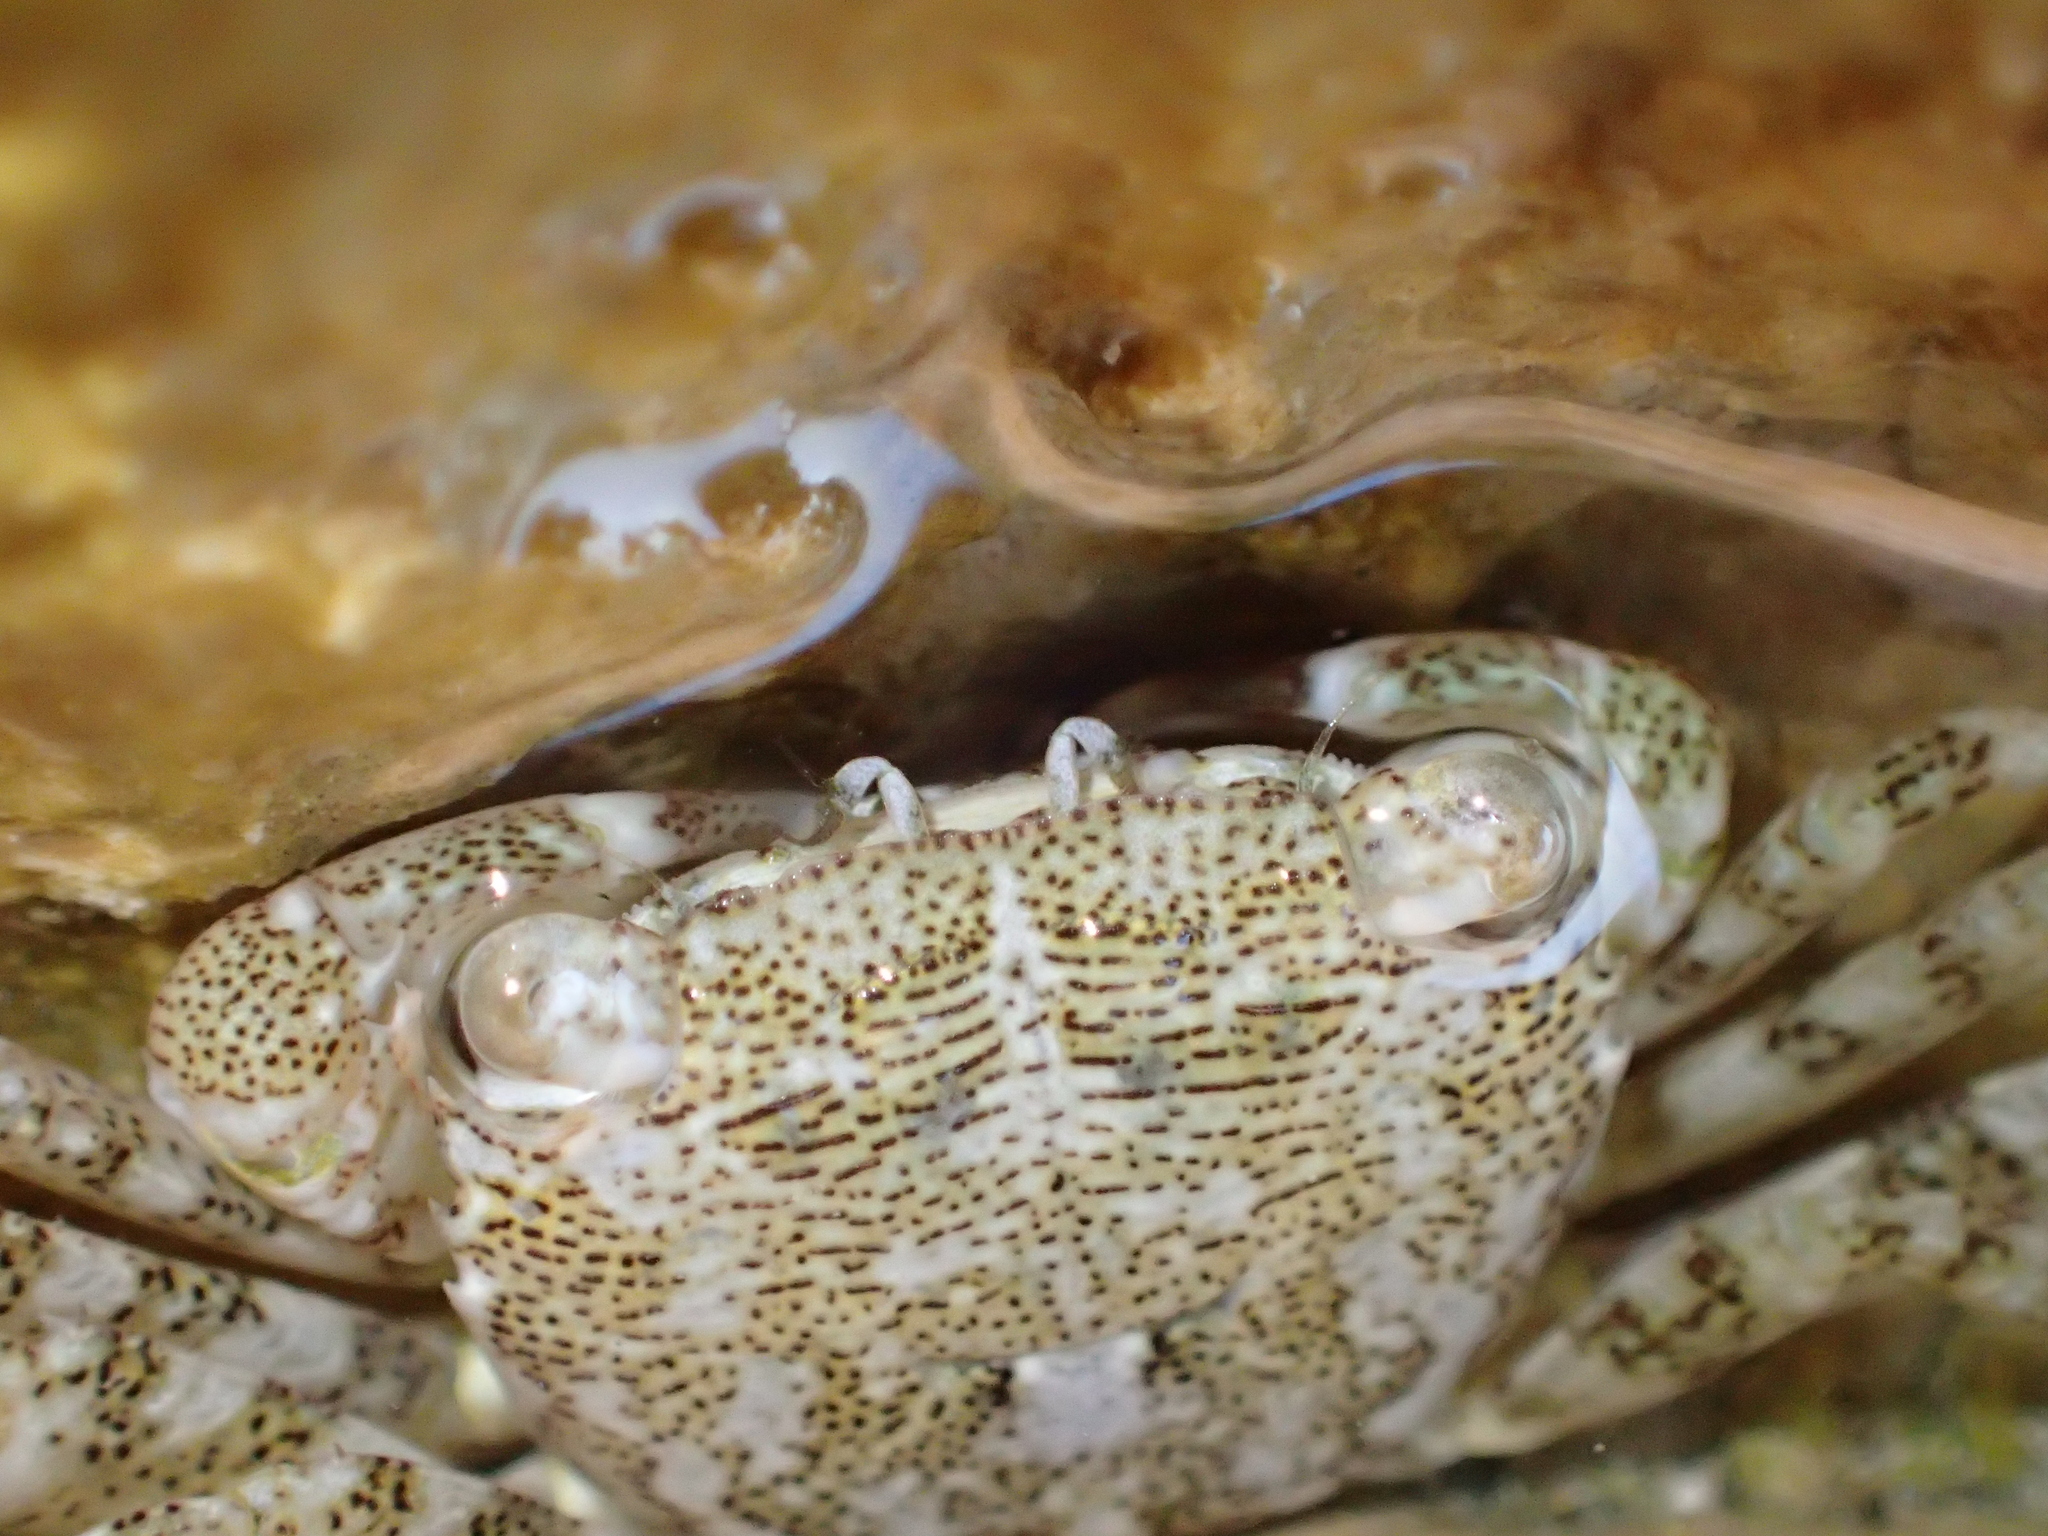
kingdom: Animalia
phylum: Arthropoda
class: Malacostraca
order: Decapoda
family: Grapsidae
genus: Pachygrapsus
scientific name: Pachygrapsus marmoratus
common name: Marbled rock crab
